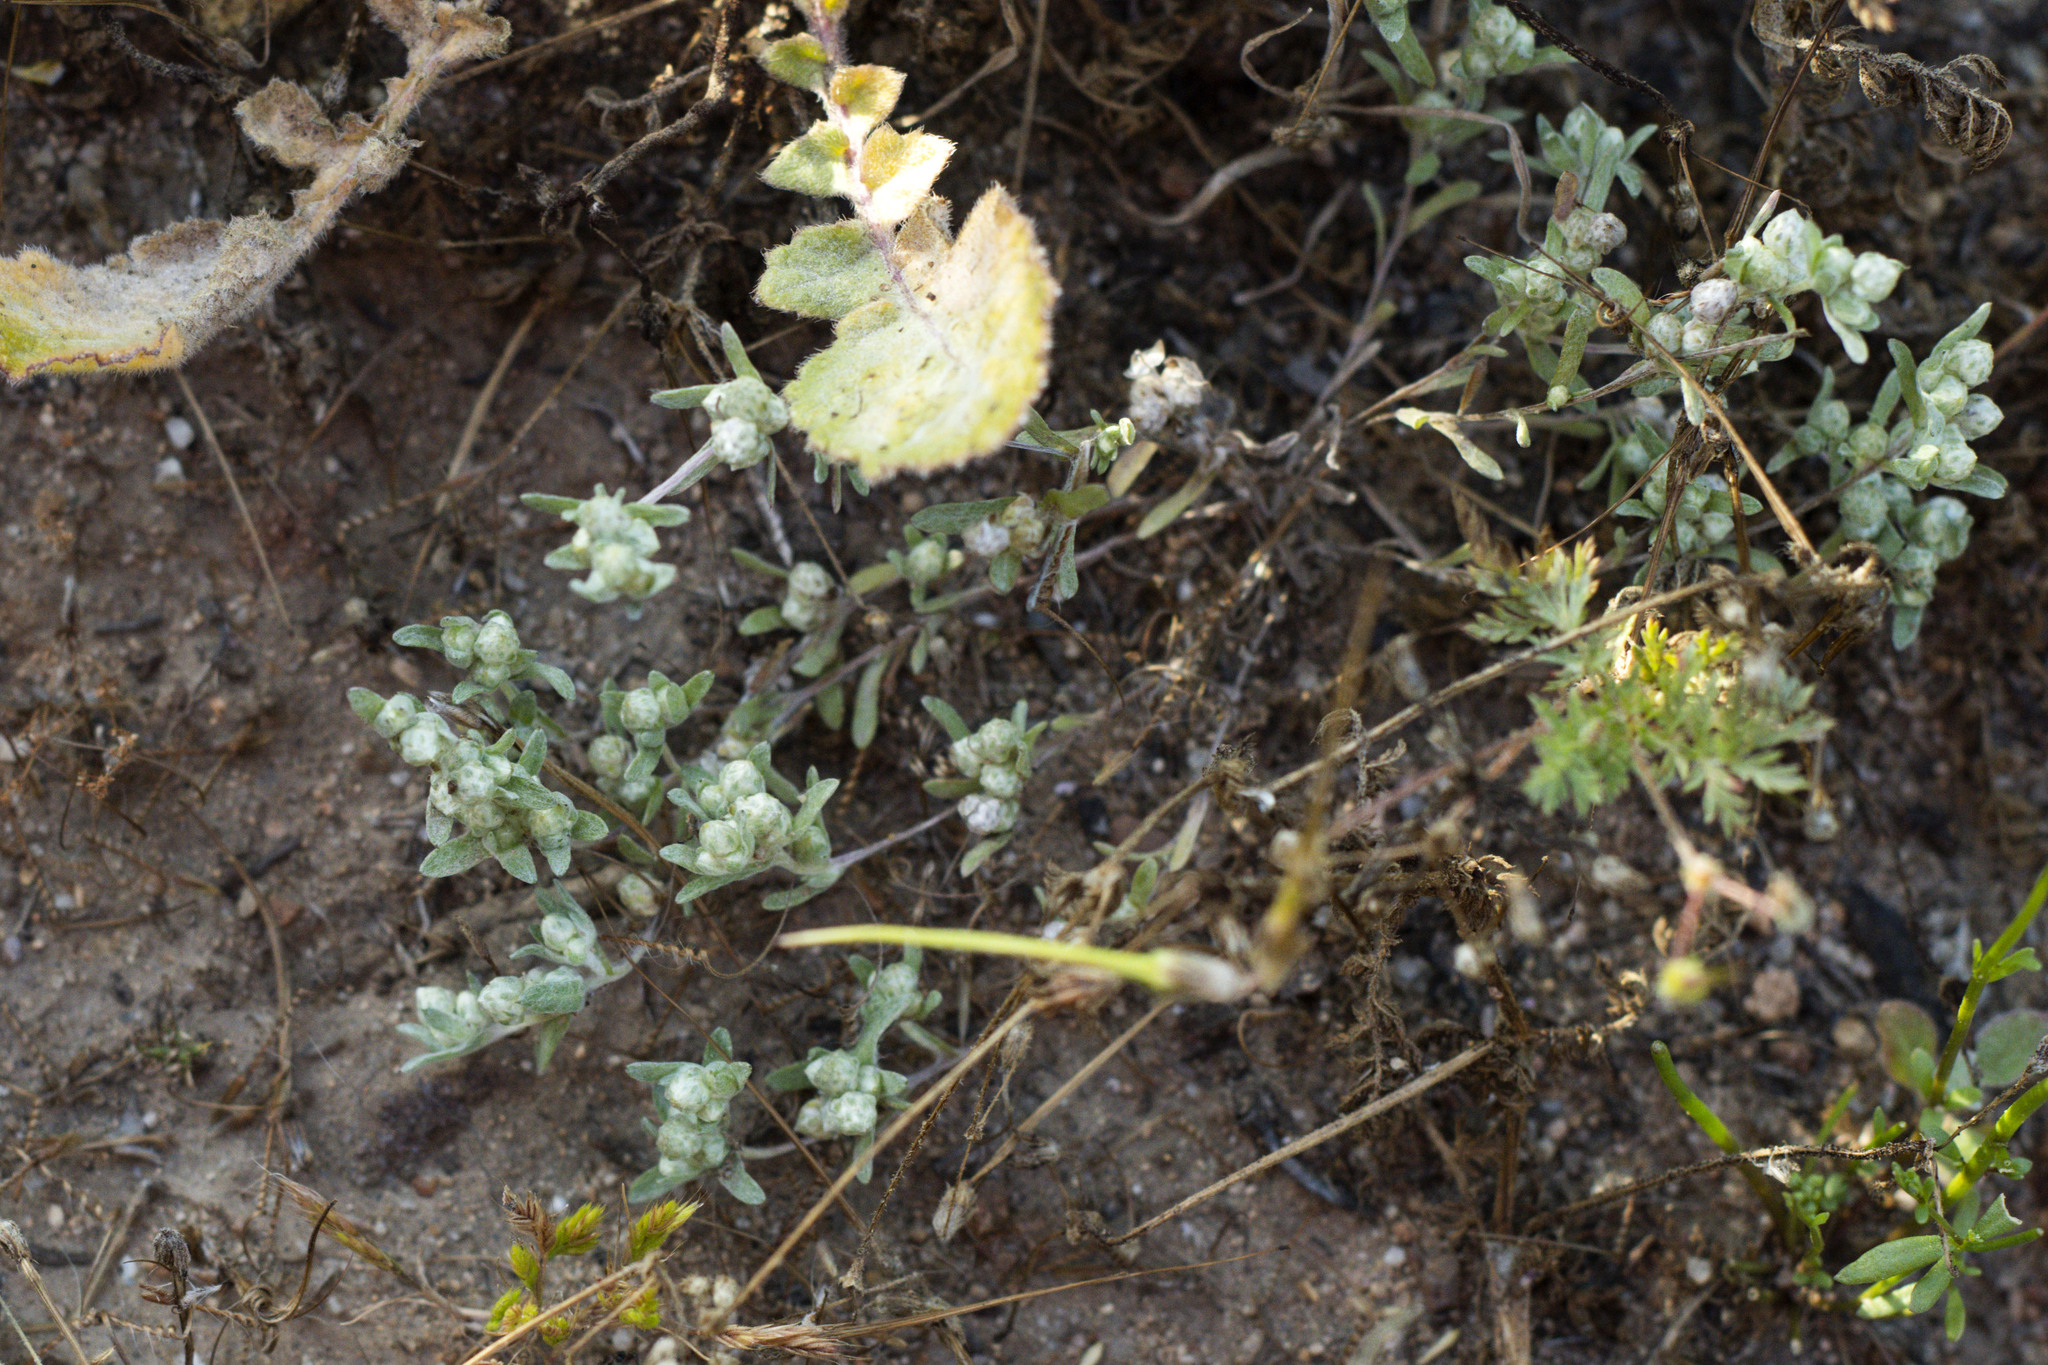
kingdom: Plantae
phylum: Tracheophyta
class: Magnoliopsida
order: Asterales
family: Asteraceae
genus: Stylocline
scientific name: Stylocline gnaphaloides
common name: Everlasting nest-straw
